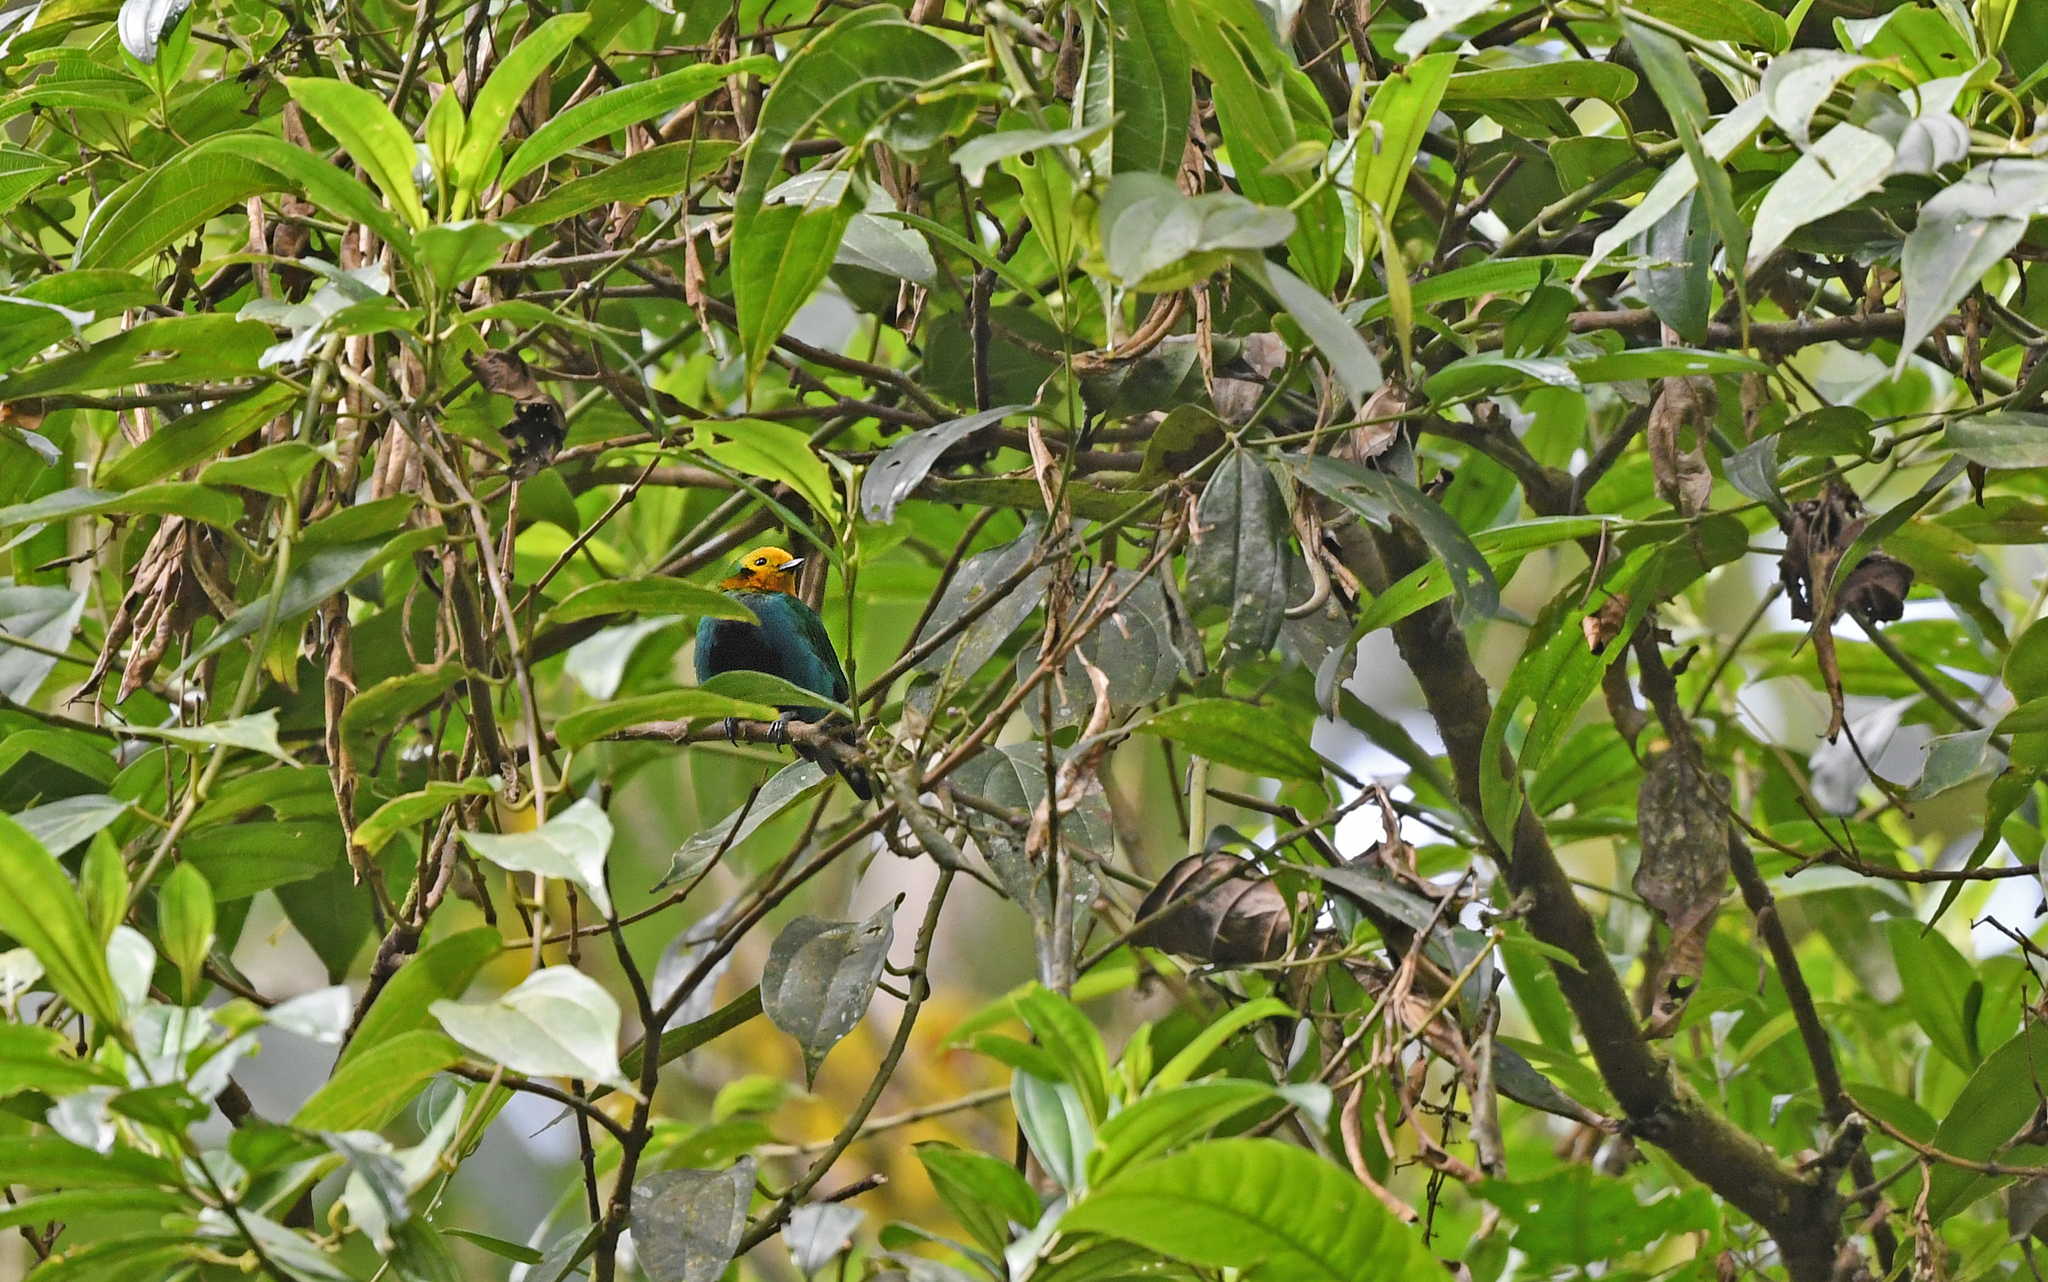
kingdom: Animalia
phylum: Chordata
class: Aves
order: Passeriformes
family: Thraupidae
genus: Chlorochrysa
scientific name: Chlorochrysa nitidissima
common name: Multicolored tanager
